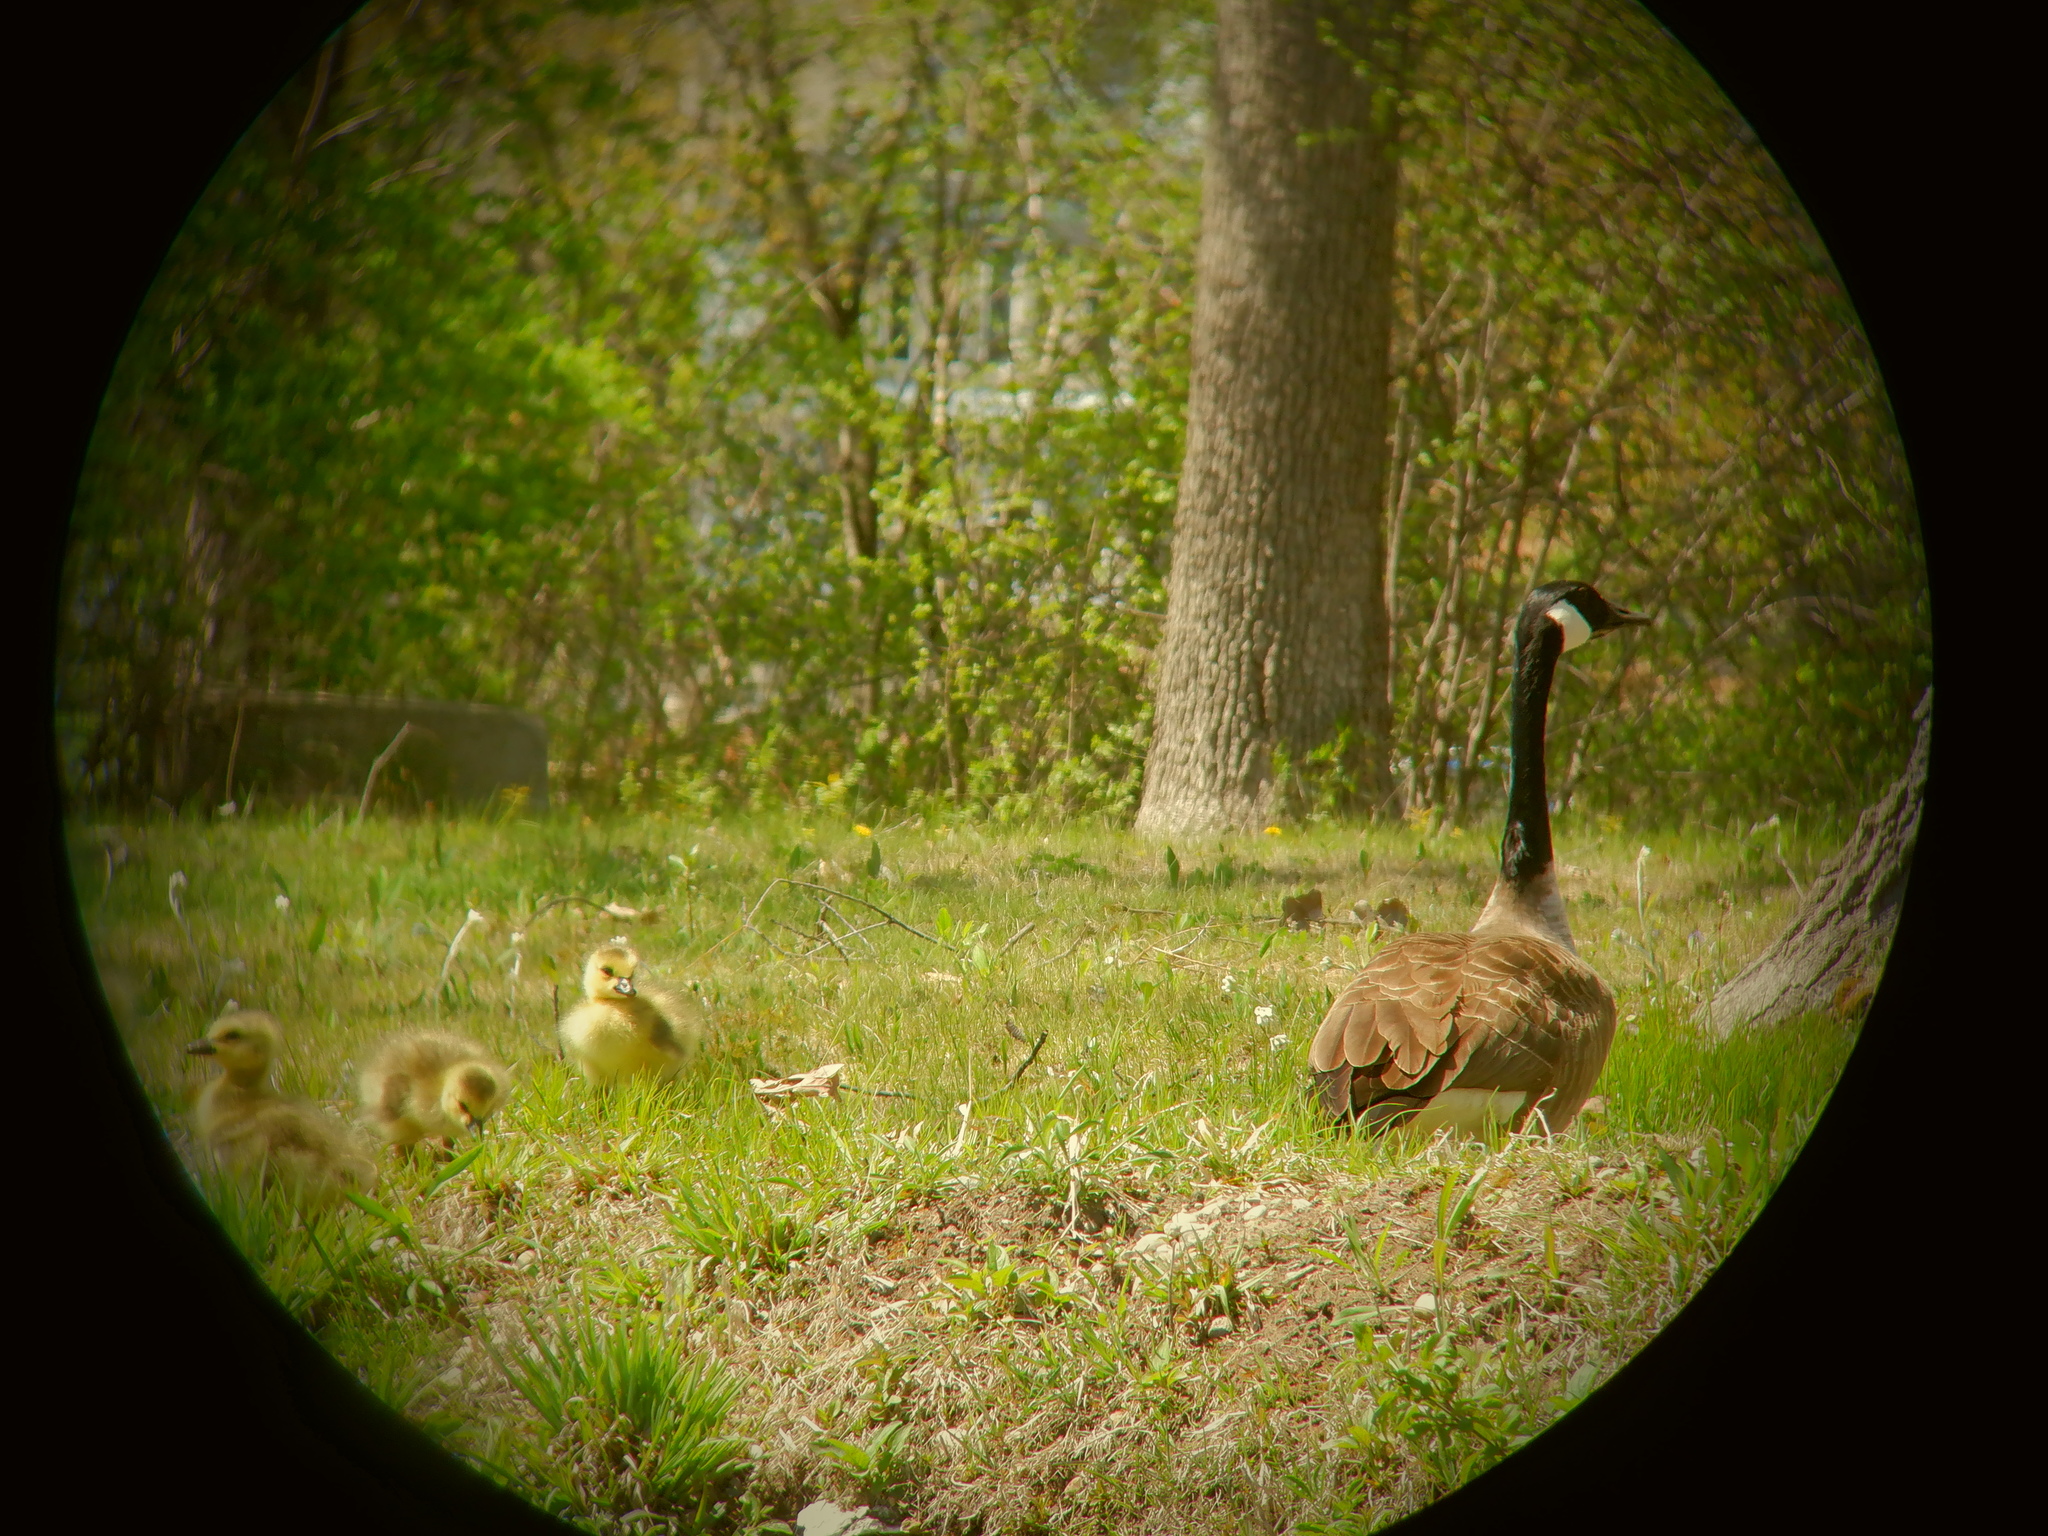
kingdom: Animalia
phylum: Chordata
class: Aves
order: Anseriformes
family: Anatidae
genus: Branta
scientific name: Branta canadensis
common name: Canada goose
